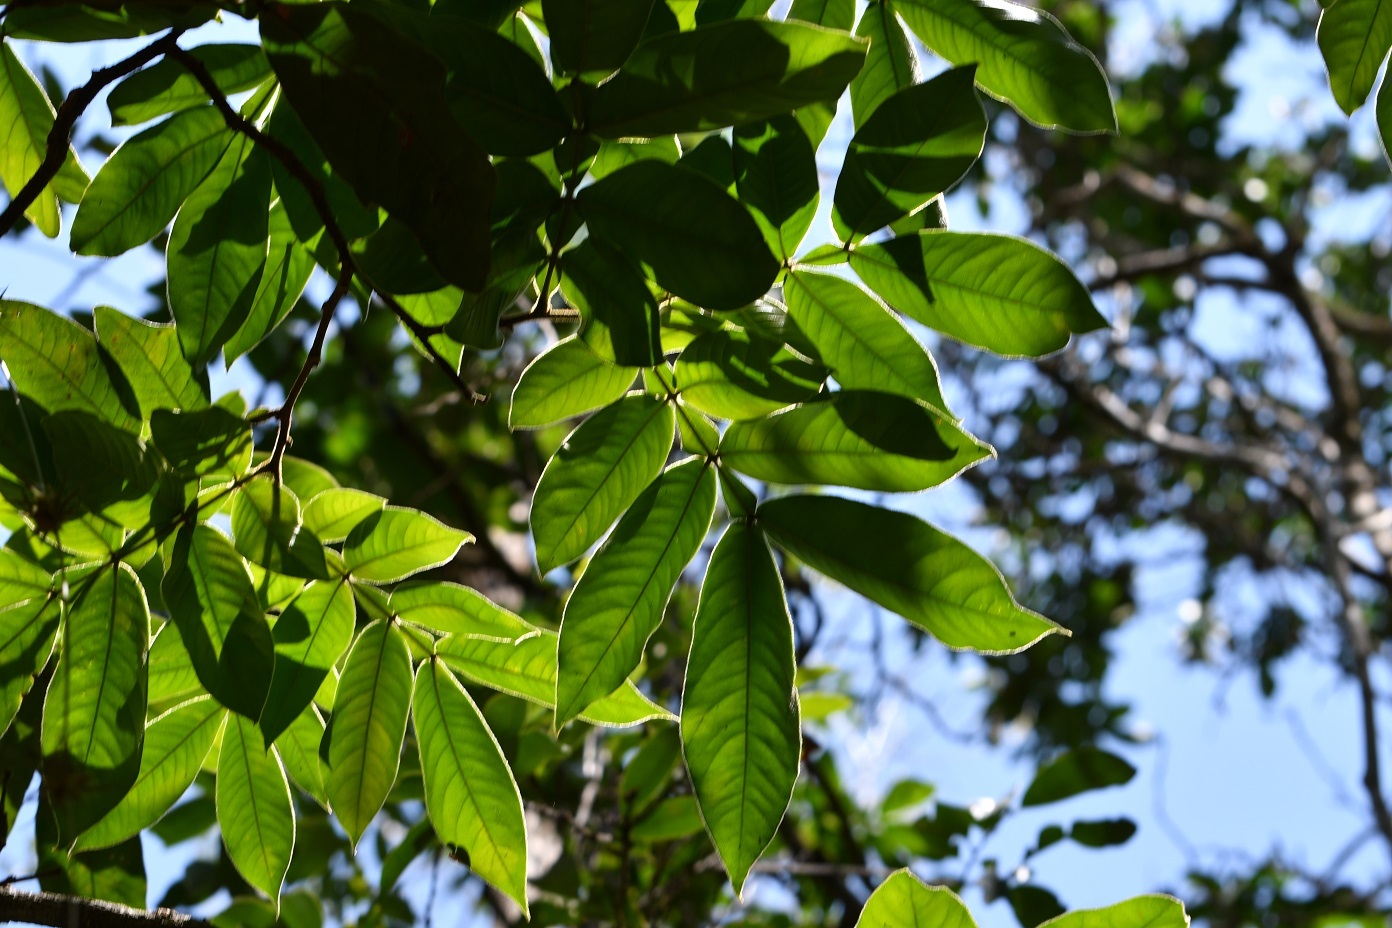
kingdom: Plantae
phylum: Tracheophyta
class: Magnoliopsida
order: Fabales
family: Fabaceae
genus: Inga
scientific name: Inga chiapensis
